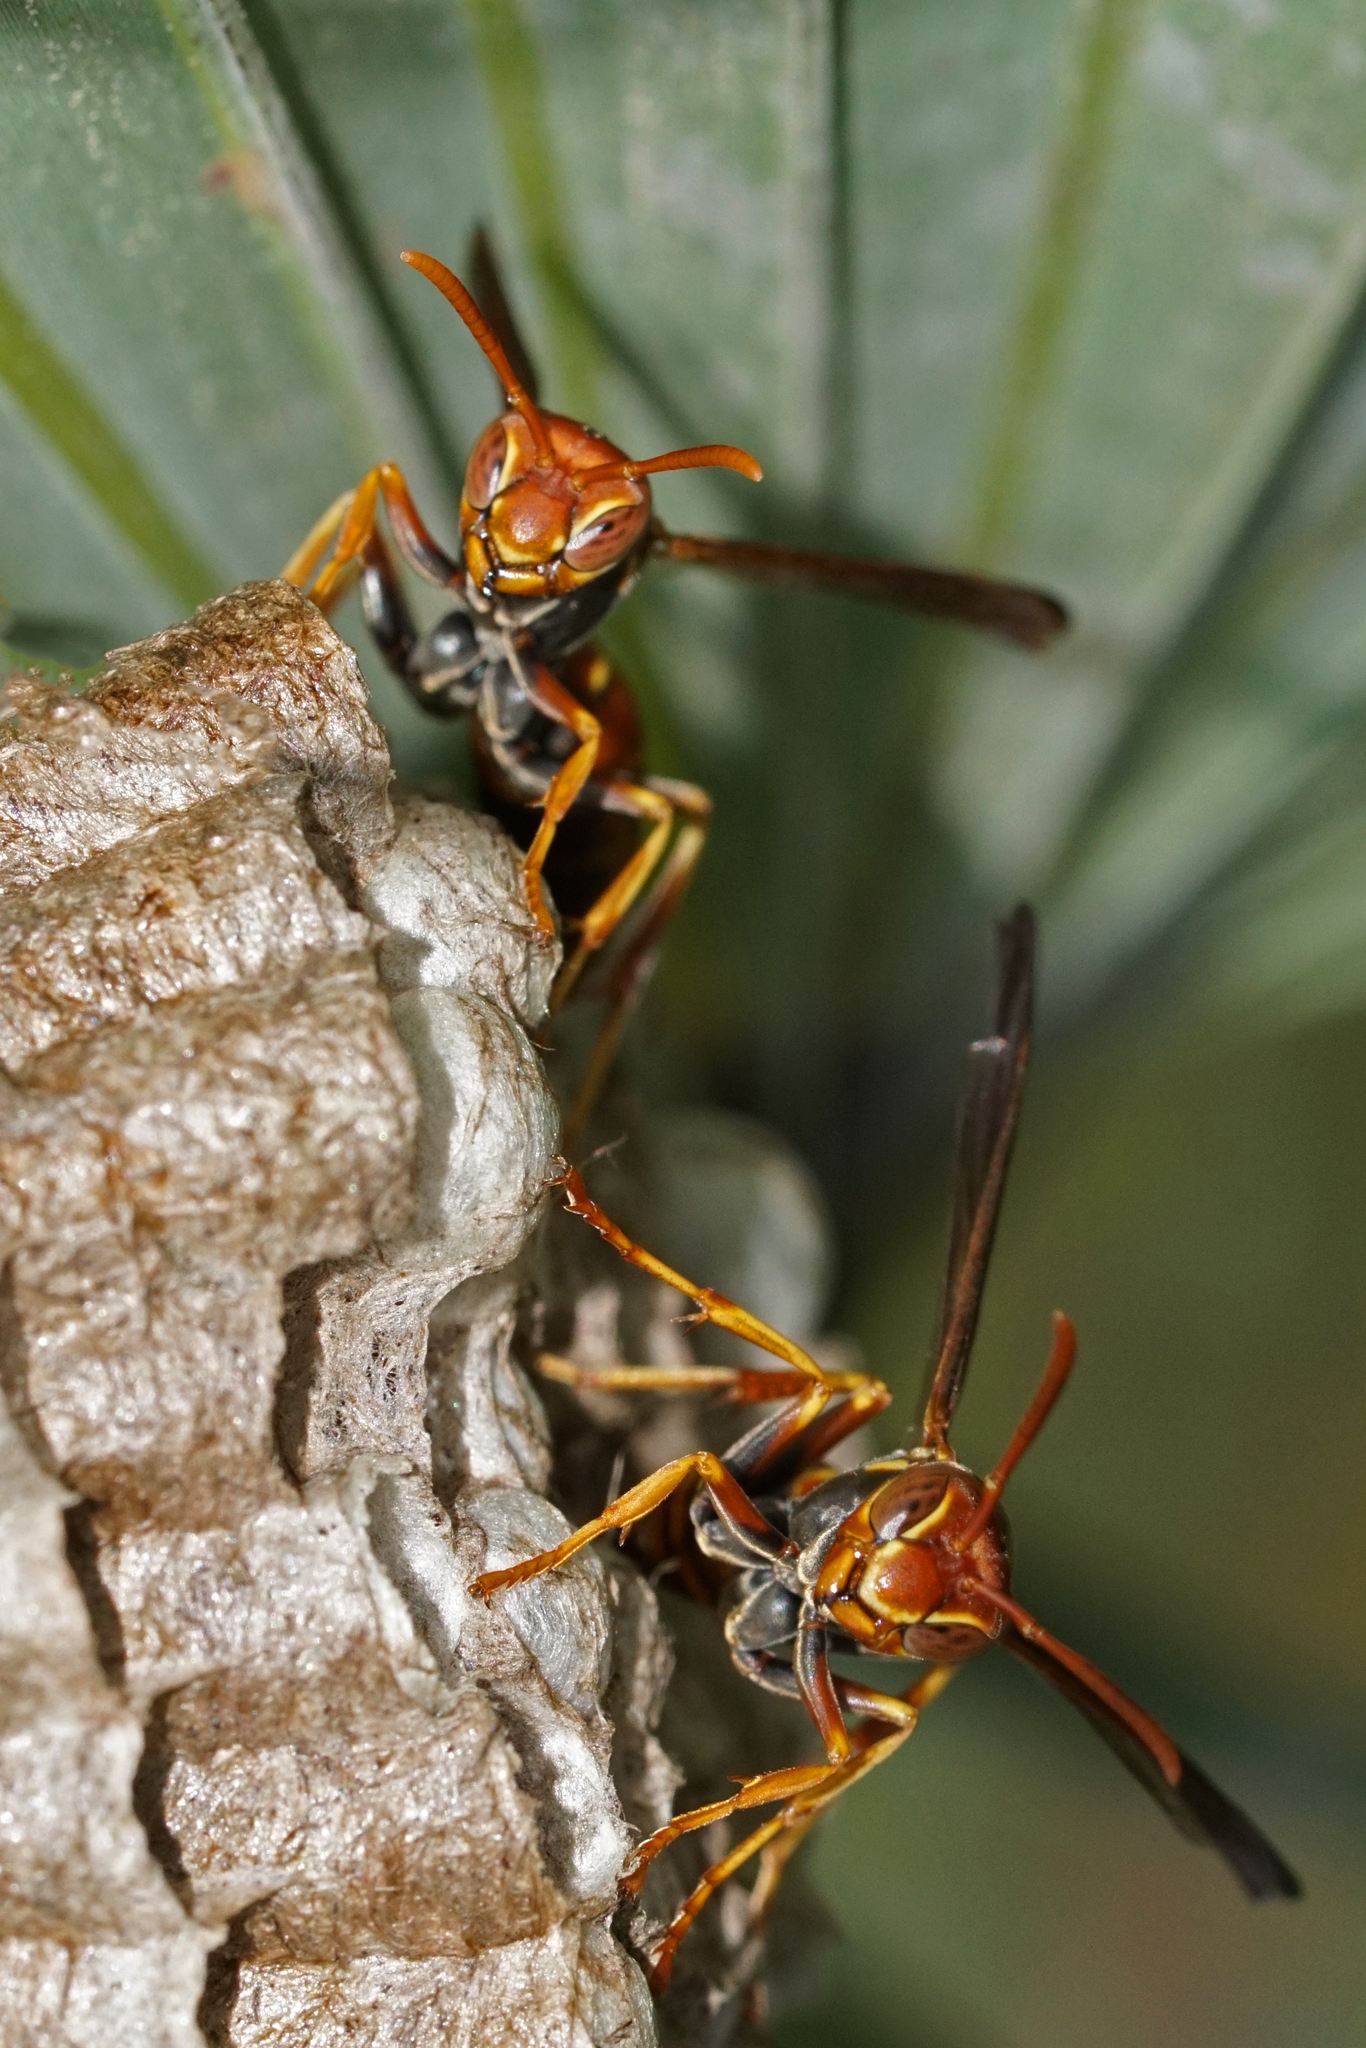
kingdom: Animalia
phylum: Arthropoda
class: Insecta
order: Hymenoptera
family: Eumenidae
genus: Polistes
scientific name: Polistes dorsalis
